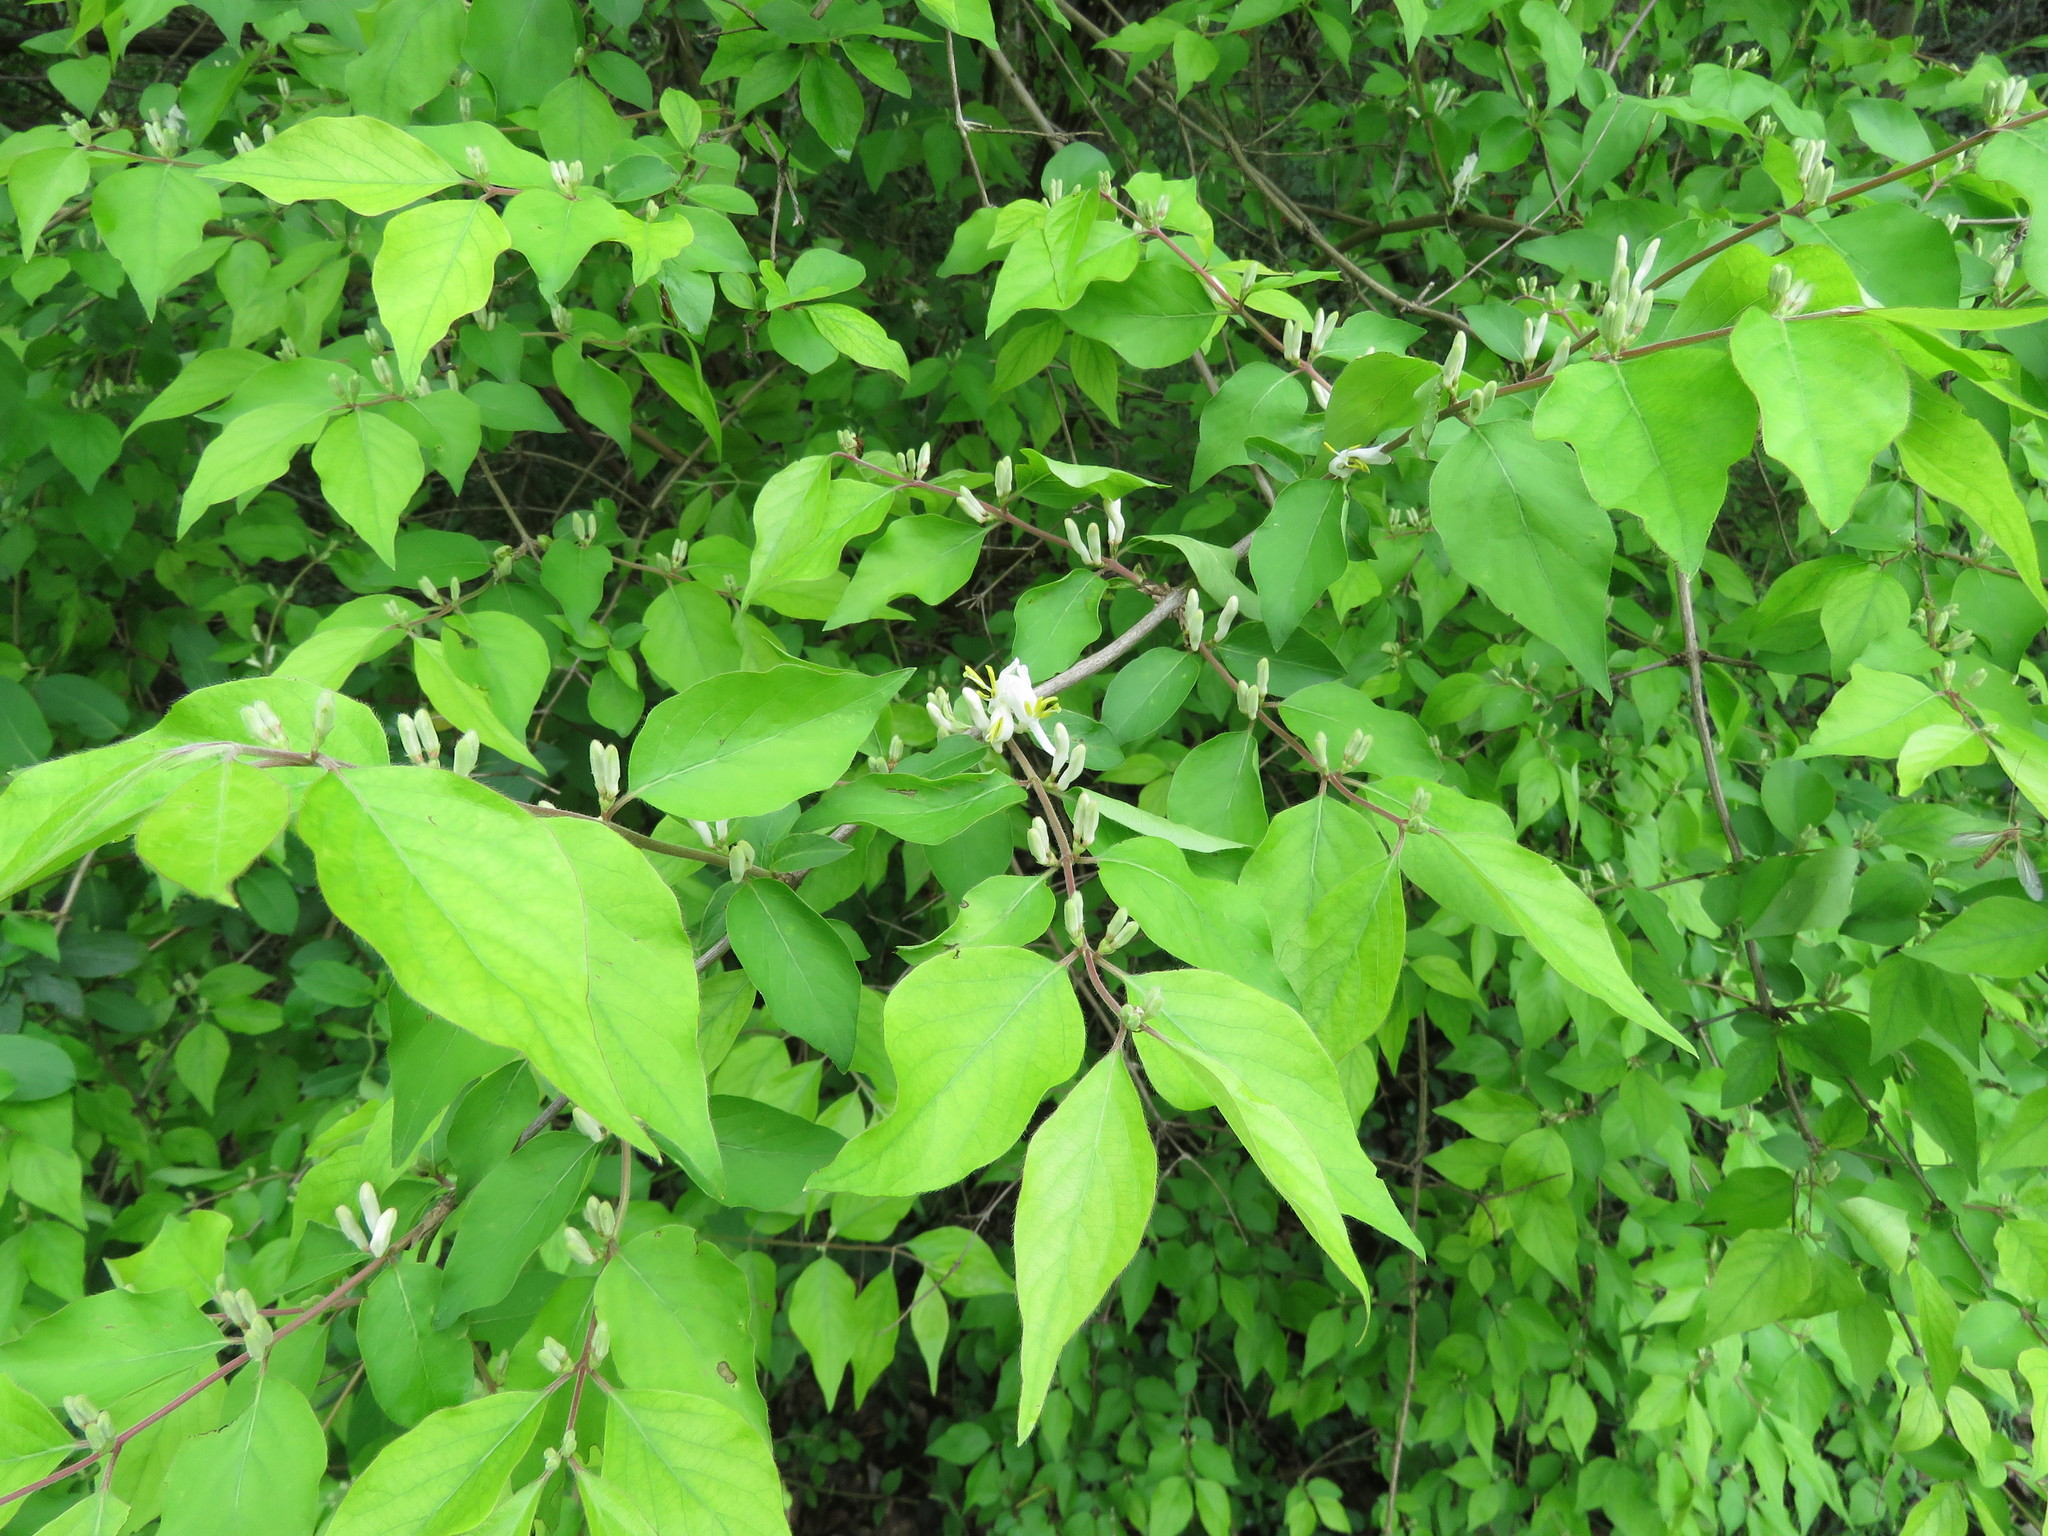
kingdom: Plantae
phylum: Tracheophyta
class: Magnoliopsida
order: Dipsacales
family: Caprifoliaceae
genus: Lonicera
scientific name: Lonicera maackii
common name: Amur honeysuckle
